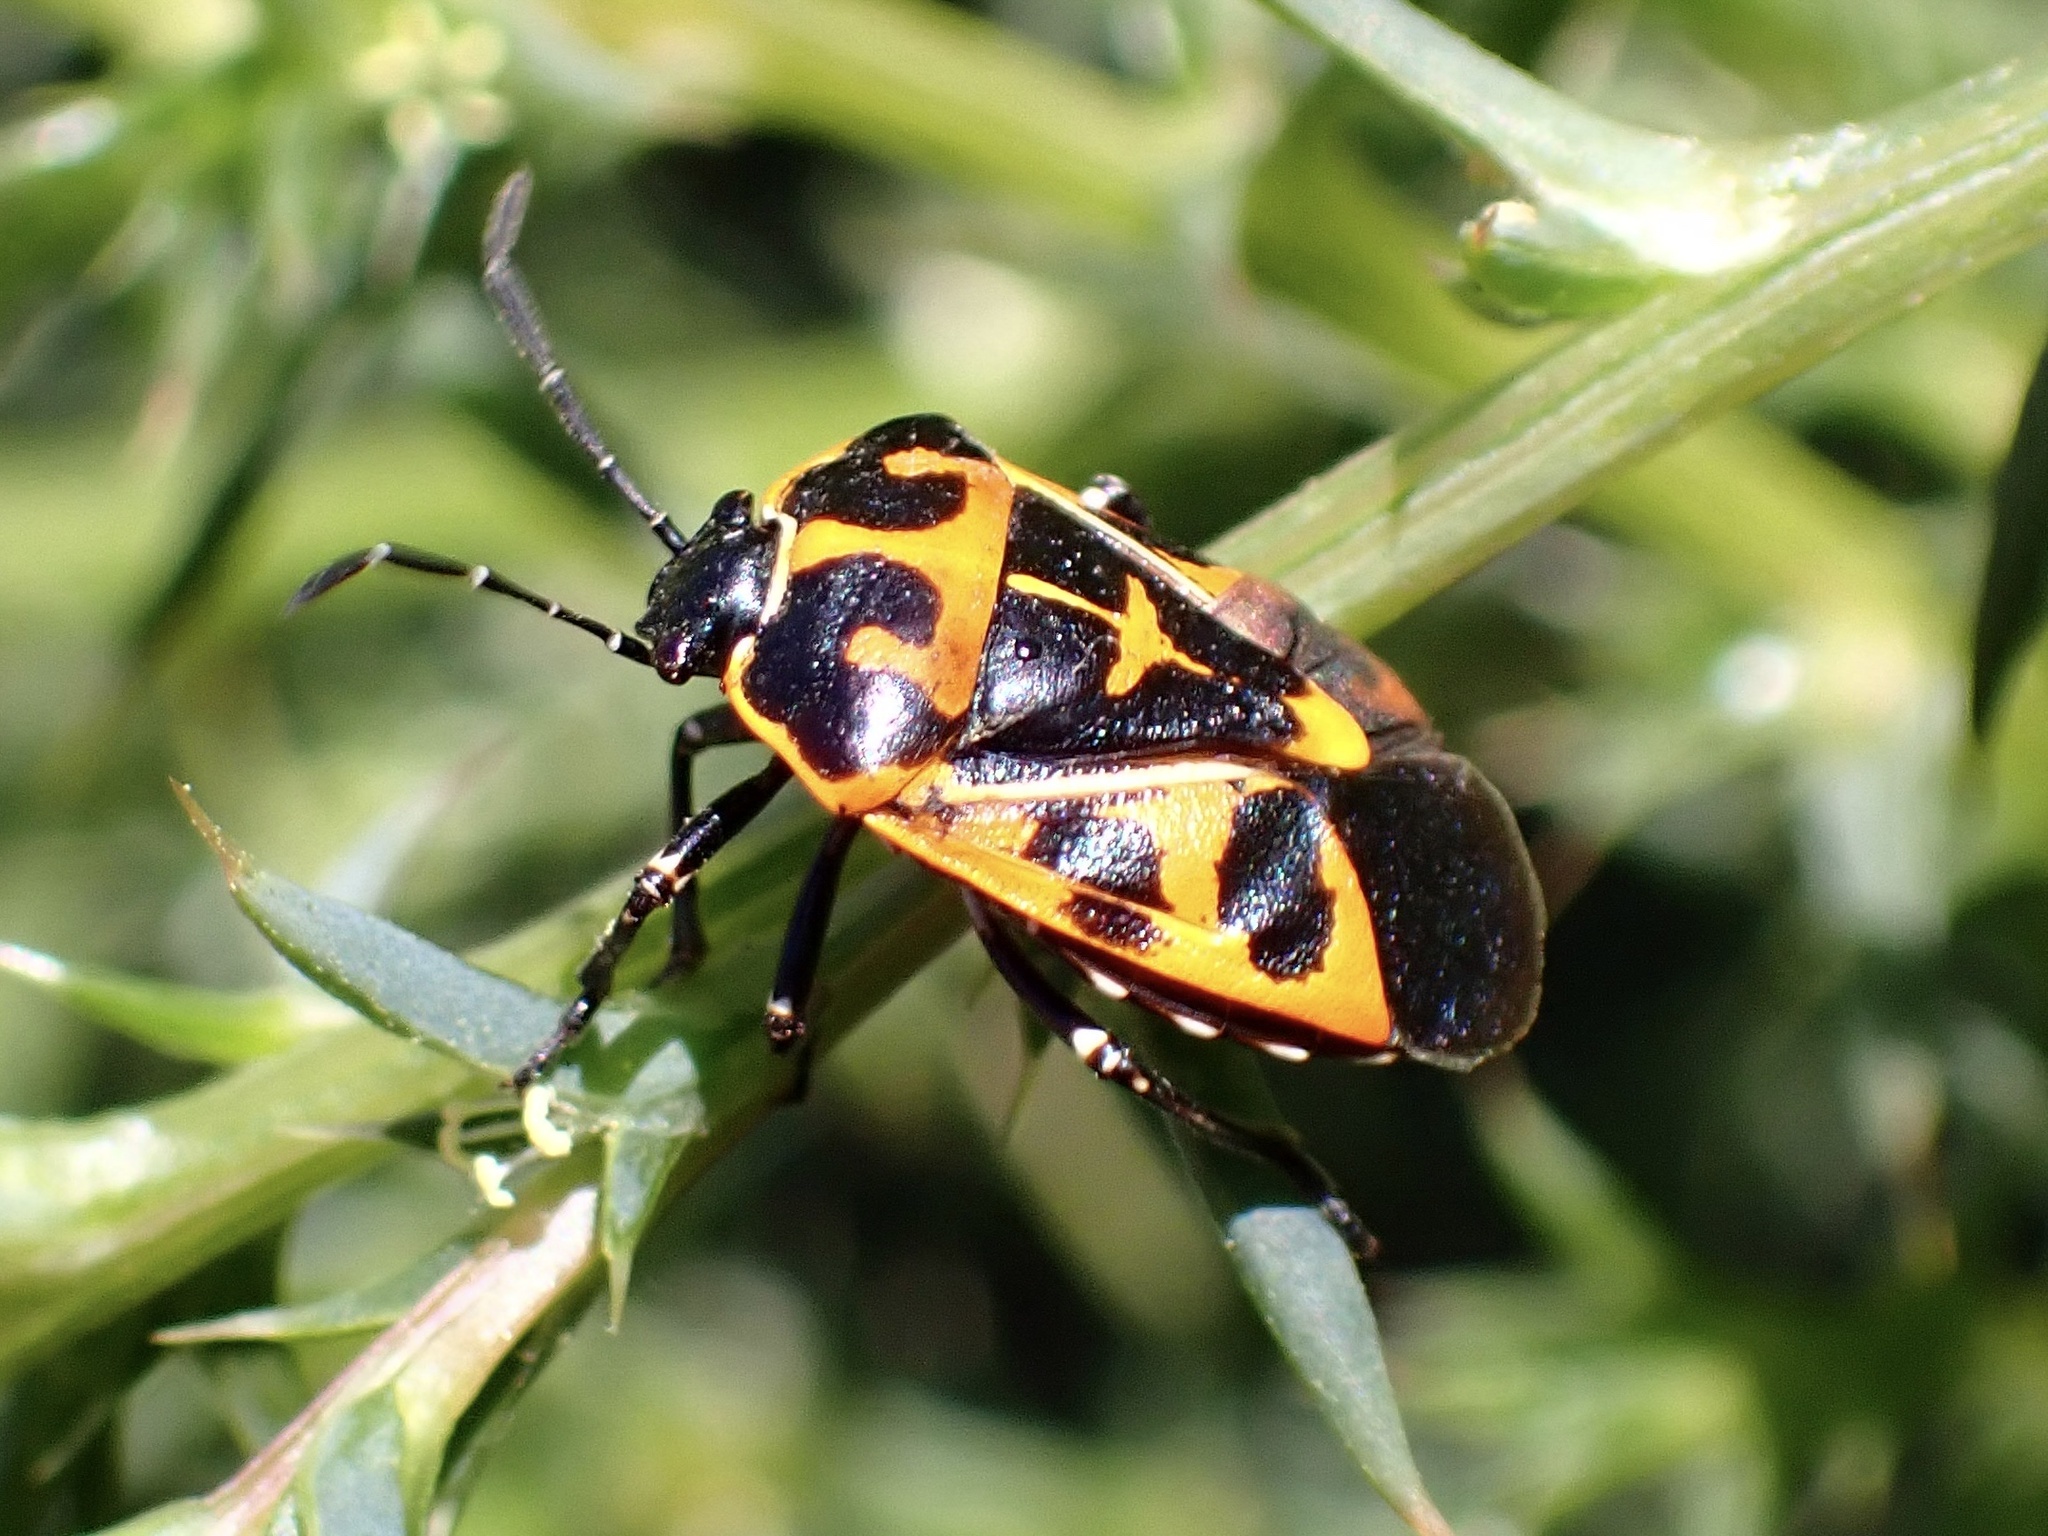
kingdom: Animalia
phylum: Arthropoda
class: Insecta
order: Hemiptera
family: Pentatomidae
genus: Murgantia
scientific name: Murgantia histrionica
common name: Harlequin bug
